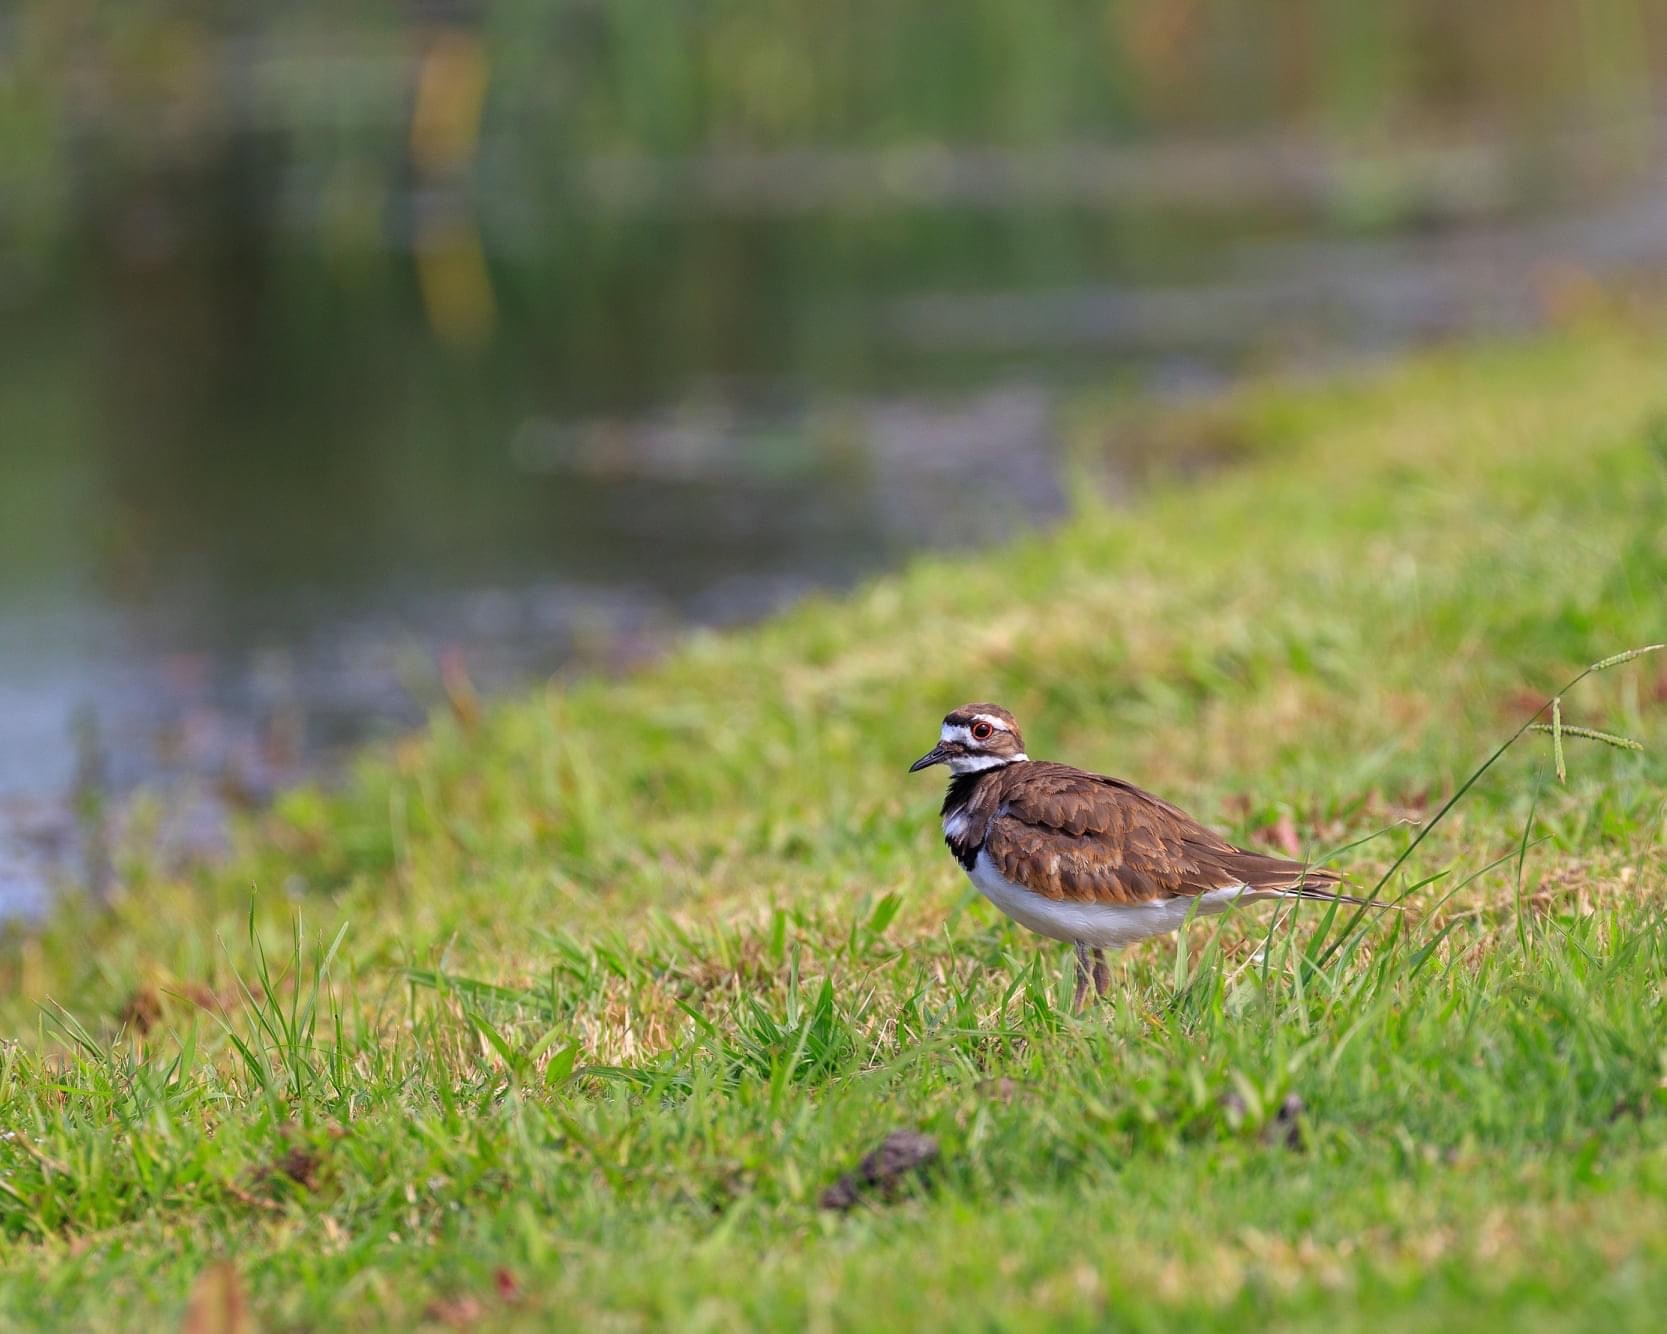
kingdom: Animalia
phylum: Chordata
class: Aves
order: Charadriiformes
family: Charadriidae
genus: Charadrius
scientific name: Charadrius vociferus
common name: Killdeer
